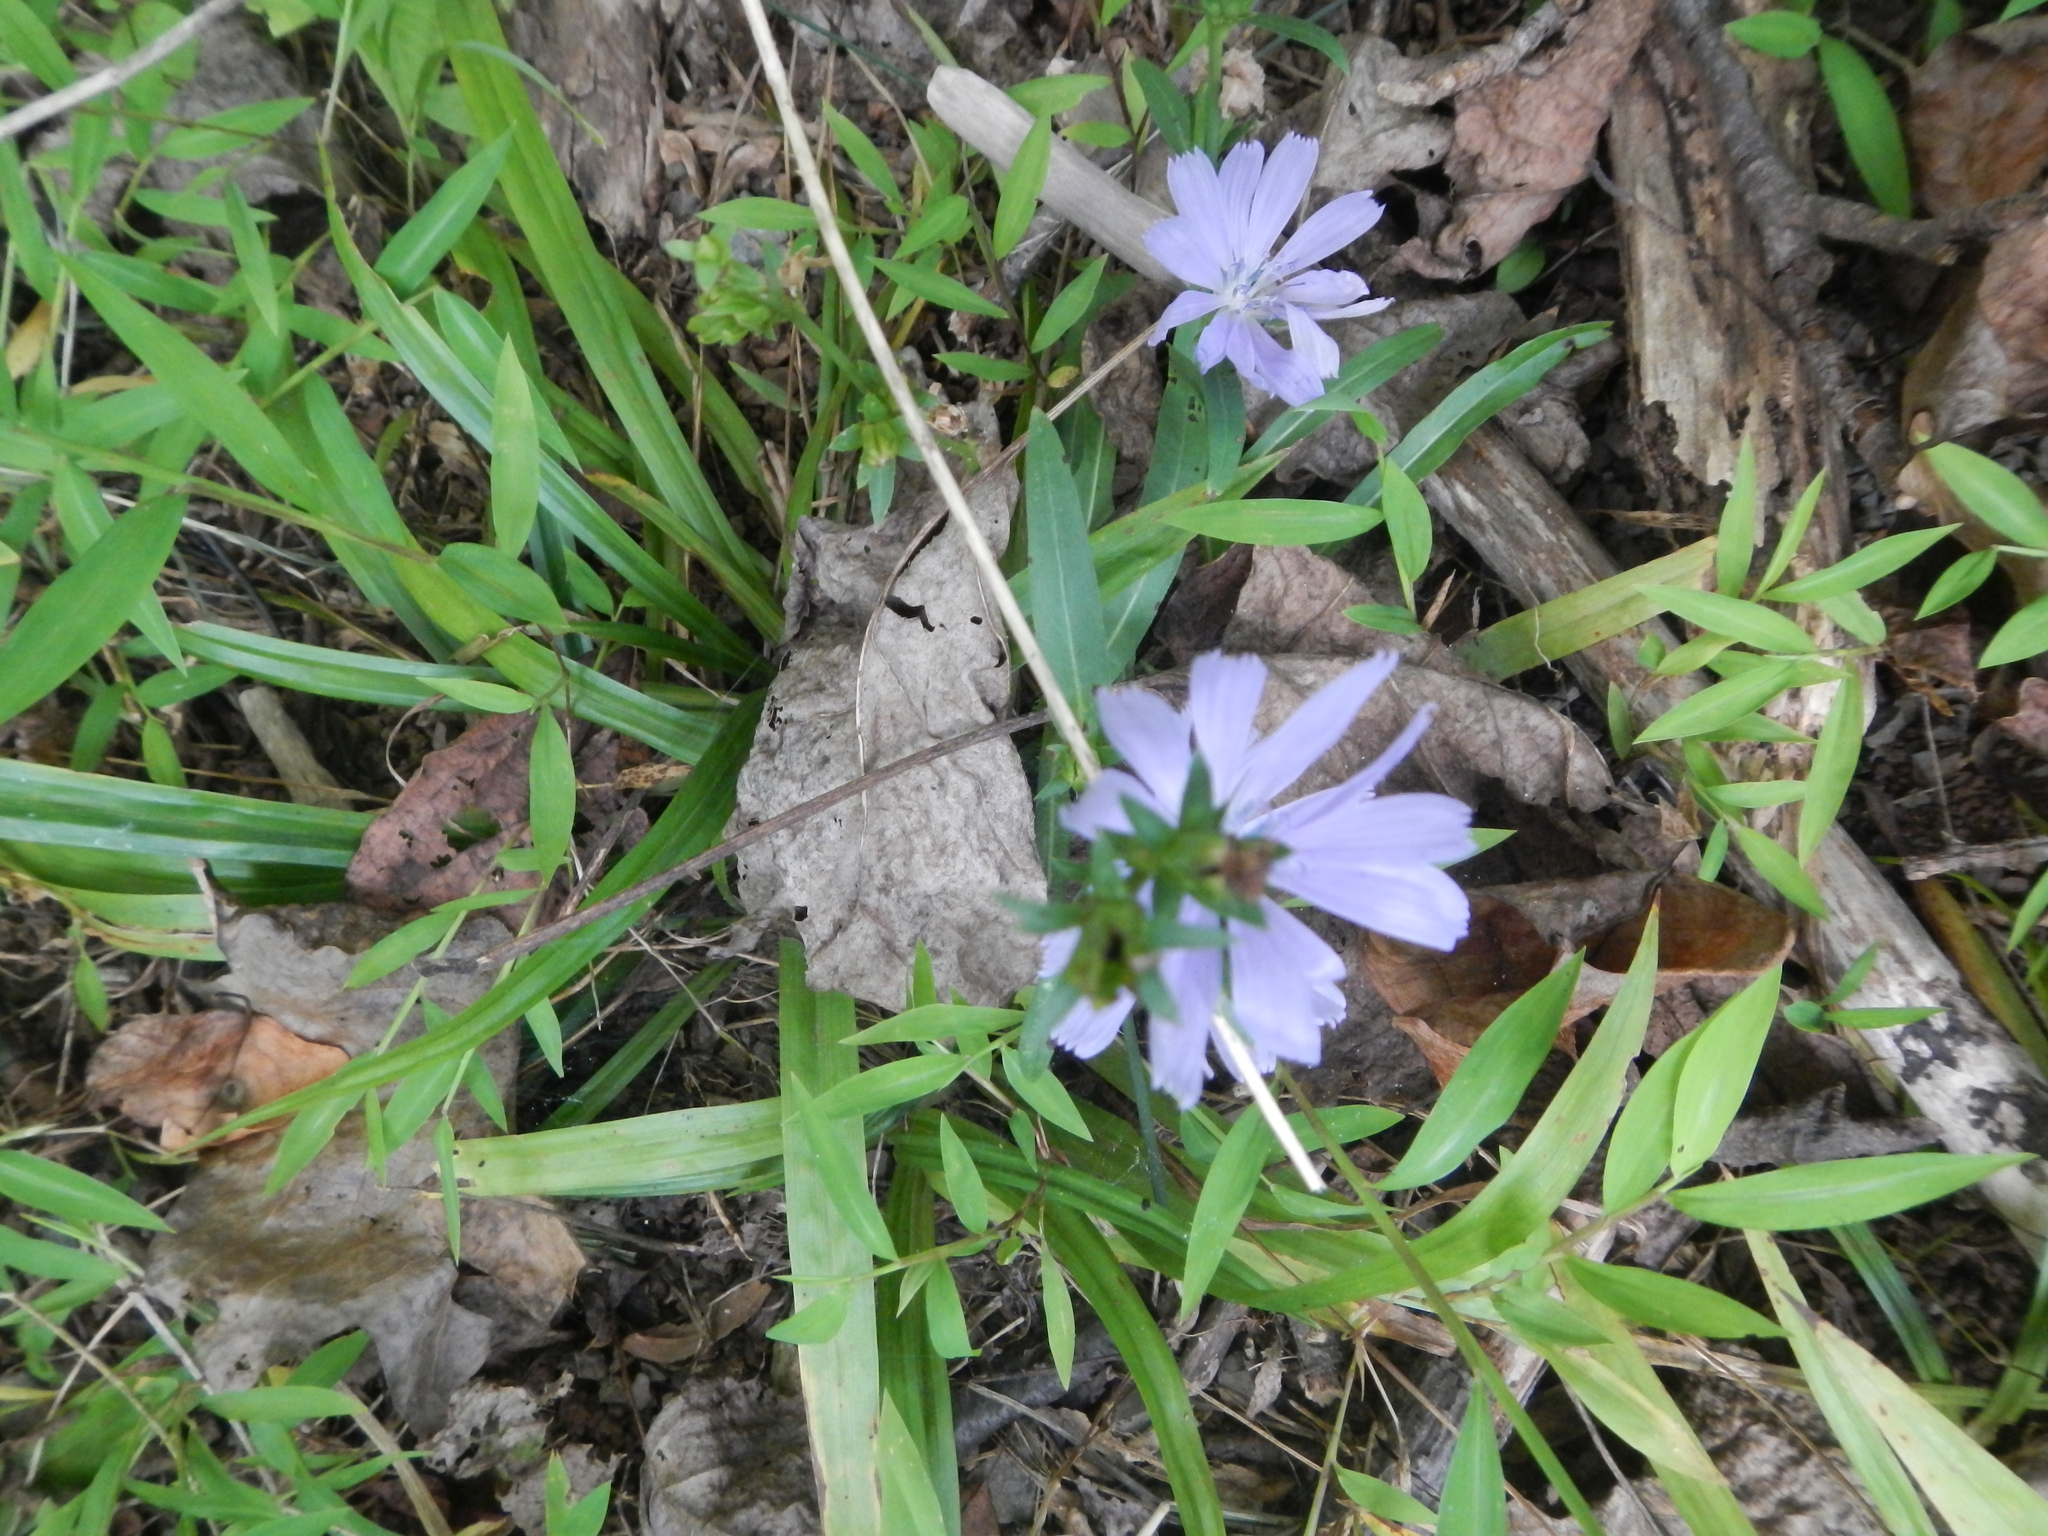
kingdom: Plantae
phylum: Tracheophyta
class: Magnoliopsida
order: Asterales
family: Asteraceae
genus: Cichorium
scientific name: Cichorium intybus
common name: Chicory
